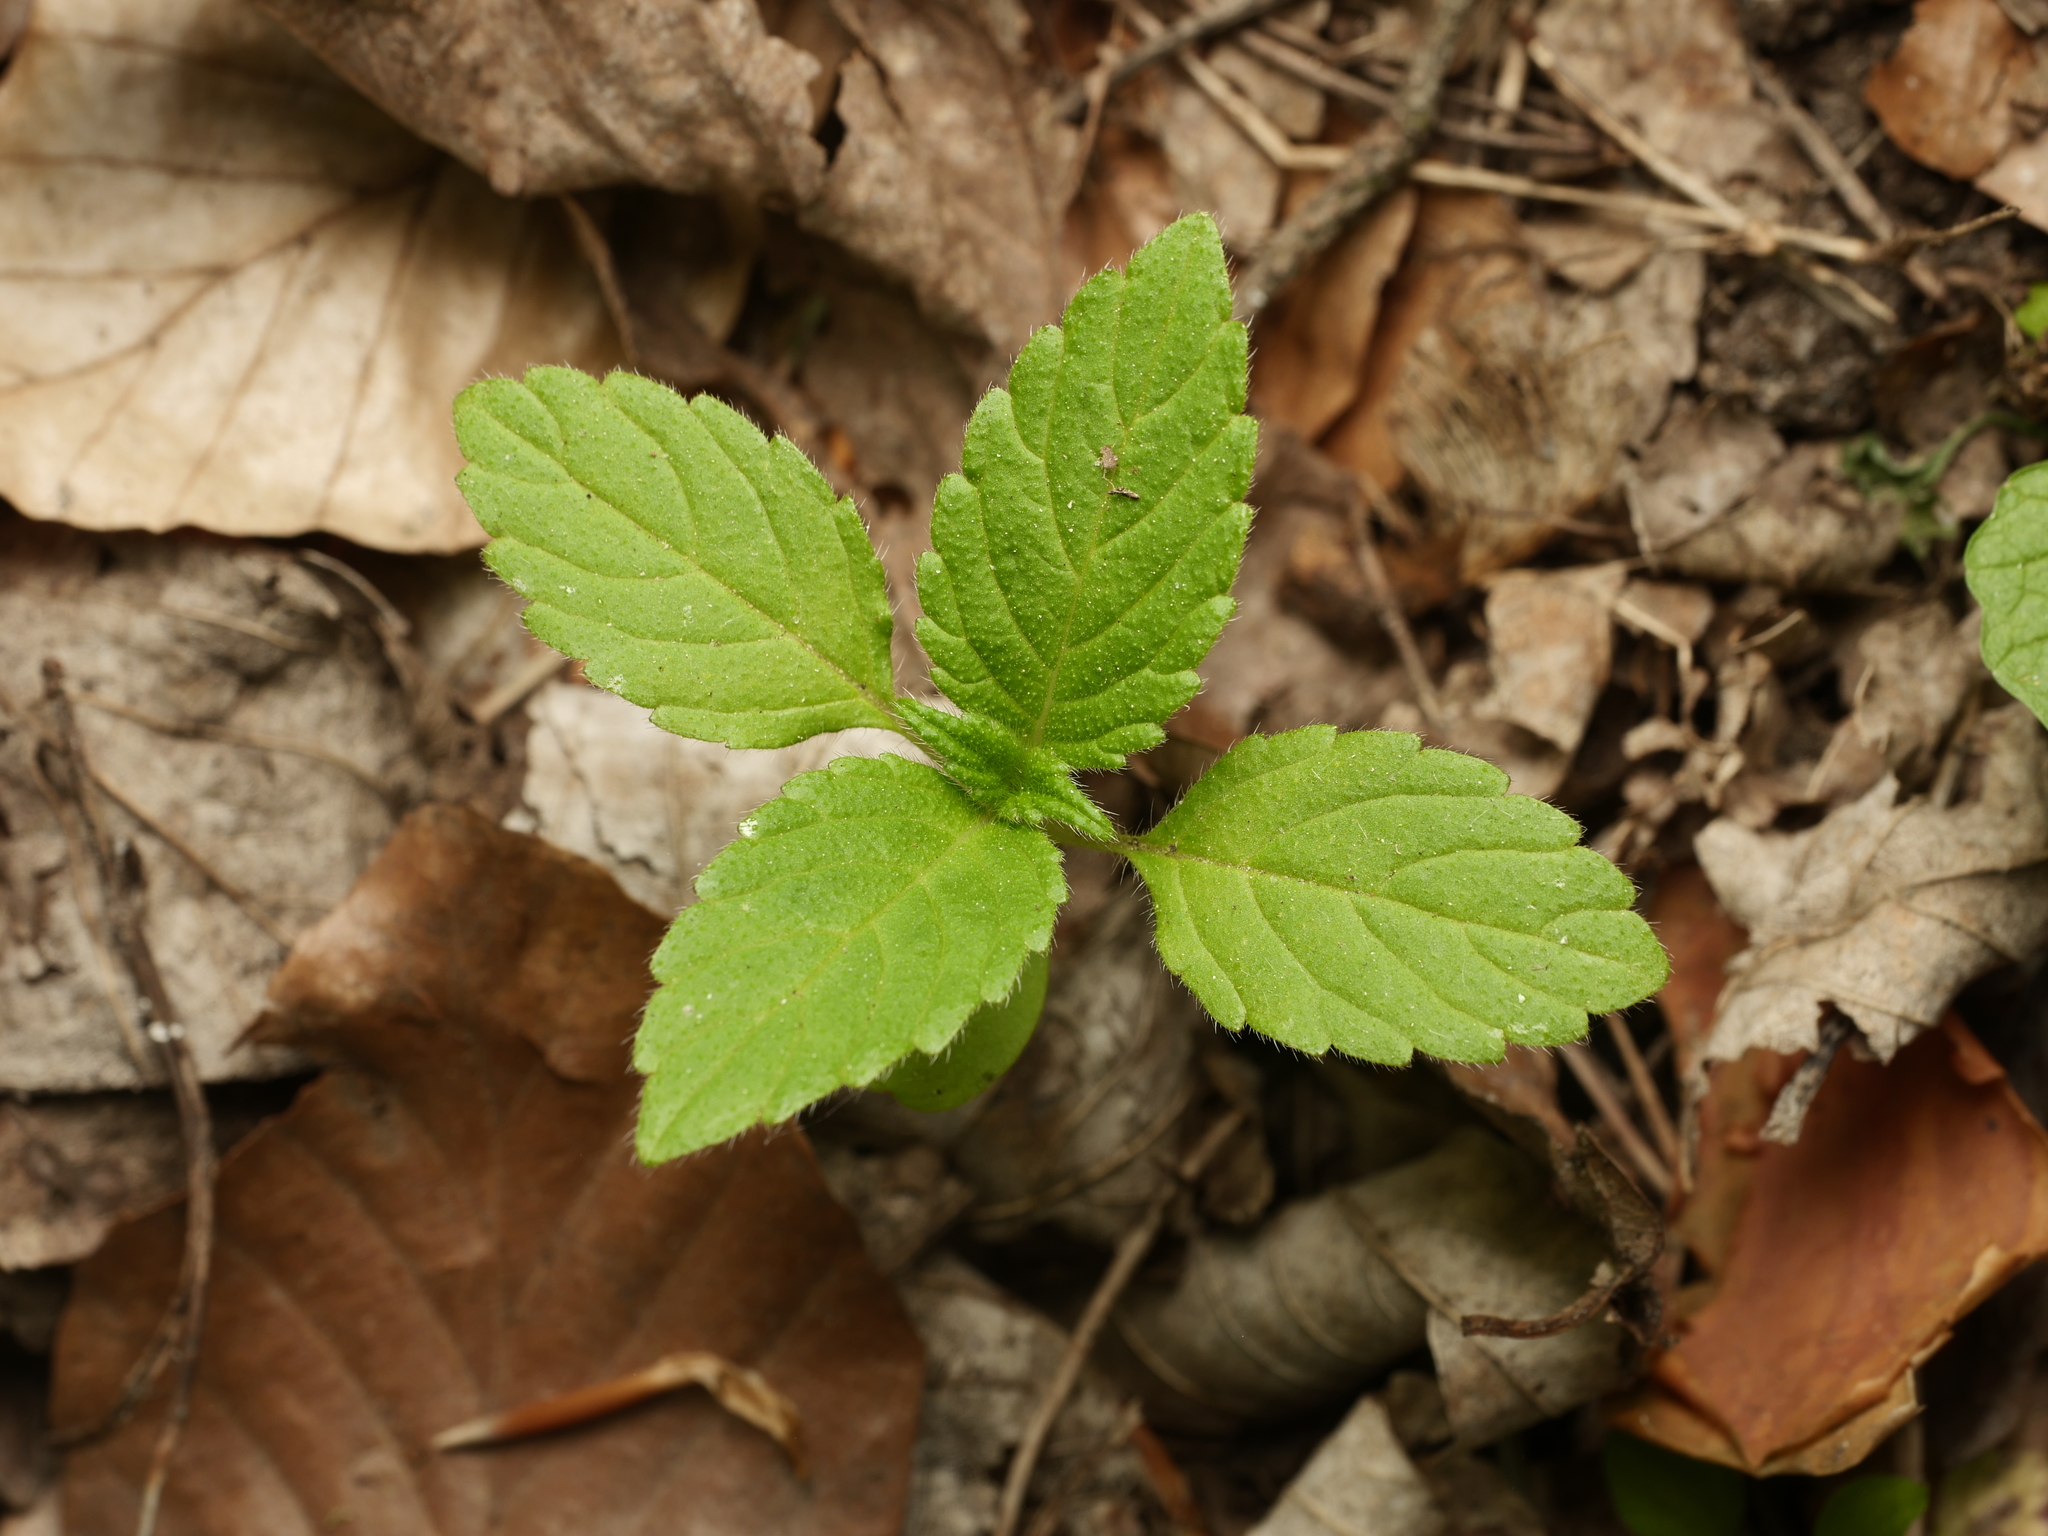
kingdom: Plantae
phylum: Tracheophyta
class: Magnoliopsida
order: Lamiales
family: Lamiaceae
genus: Galeopsis
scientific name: Galeopsis tetrahit
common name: Common hemp-nettle
